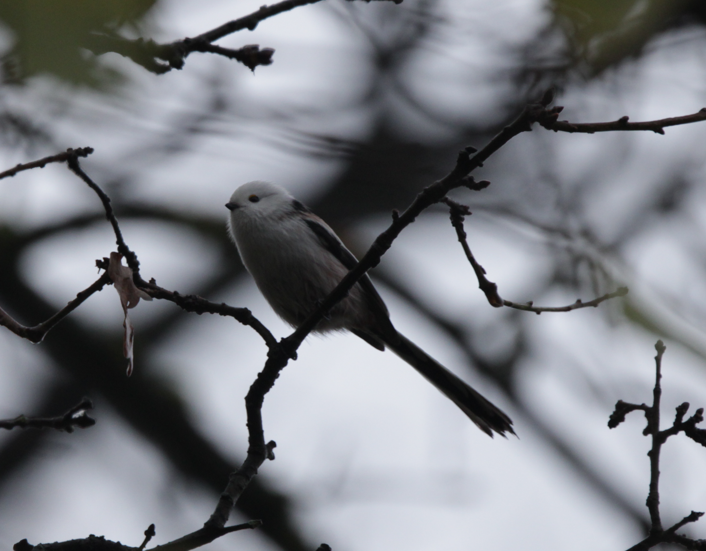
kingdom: Animalia
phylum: Chordata
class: Aves
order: Passeriformes
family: Aegithalidae
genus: Aegithalos
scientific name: Aegithalos caudatus
